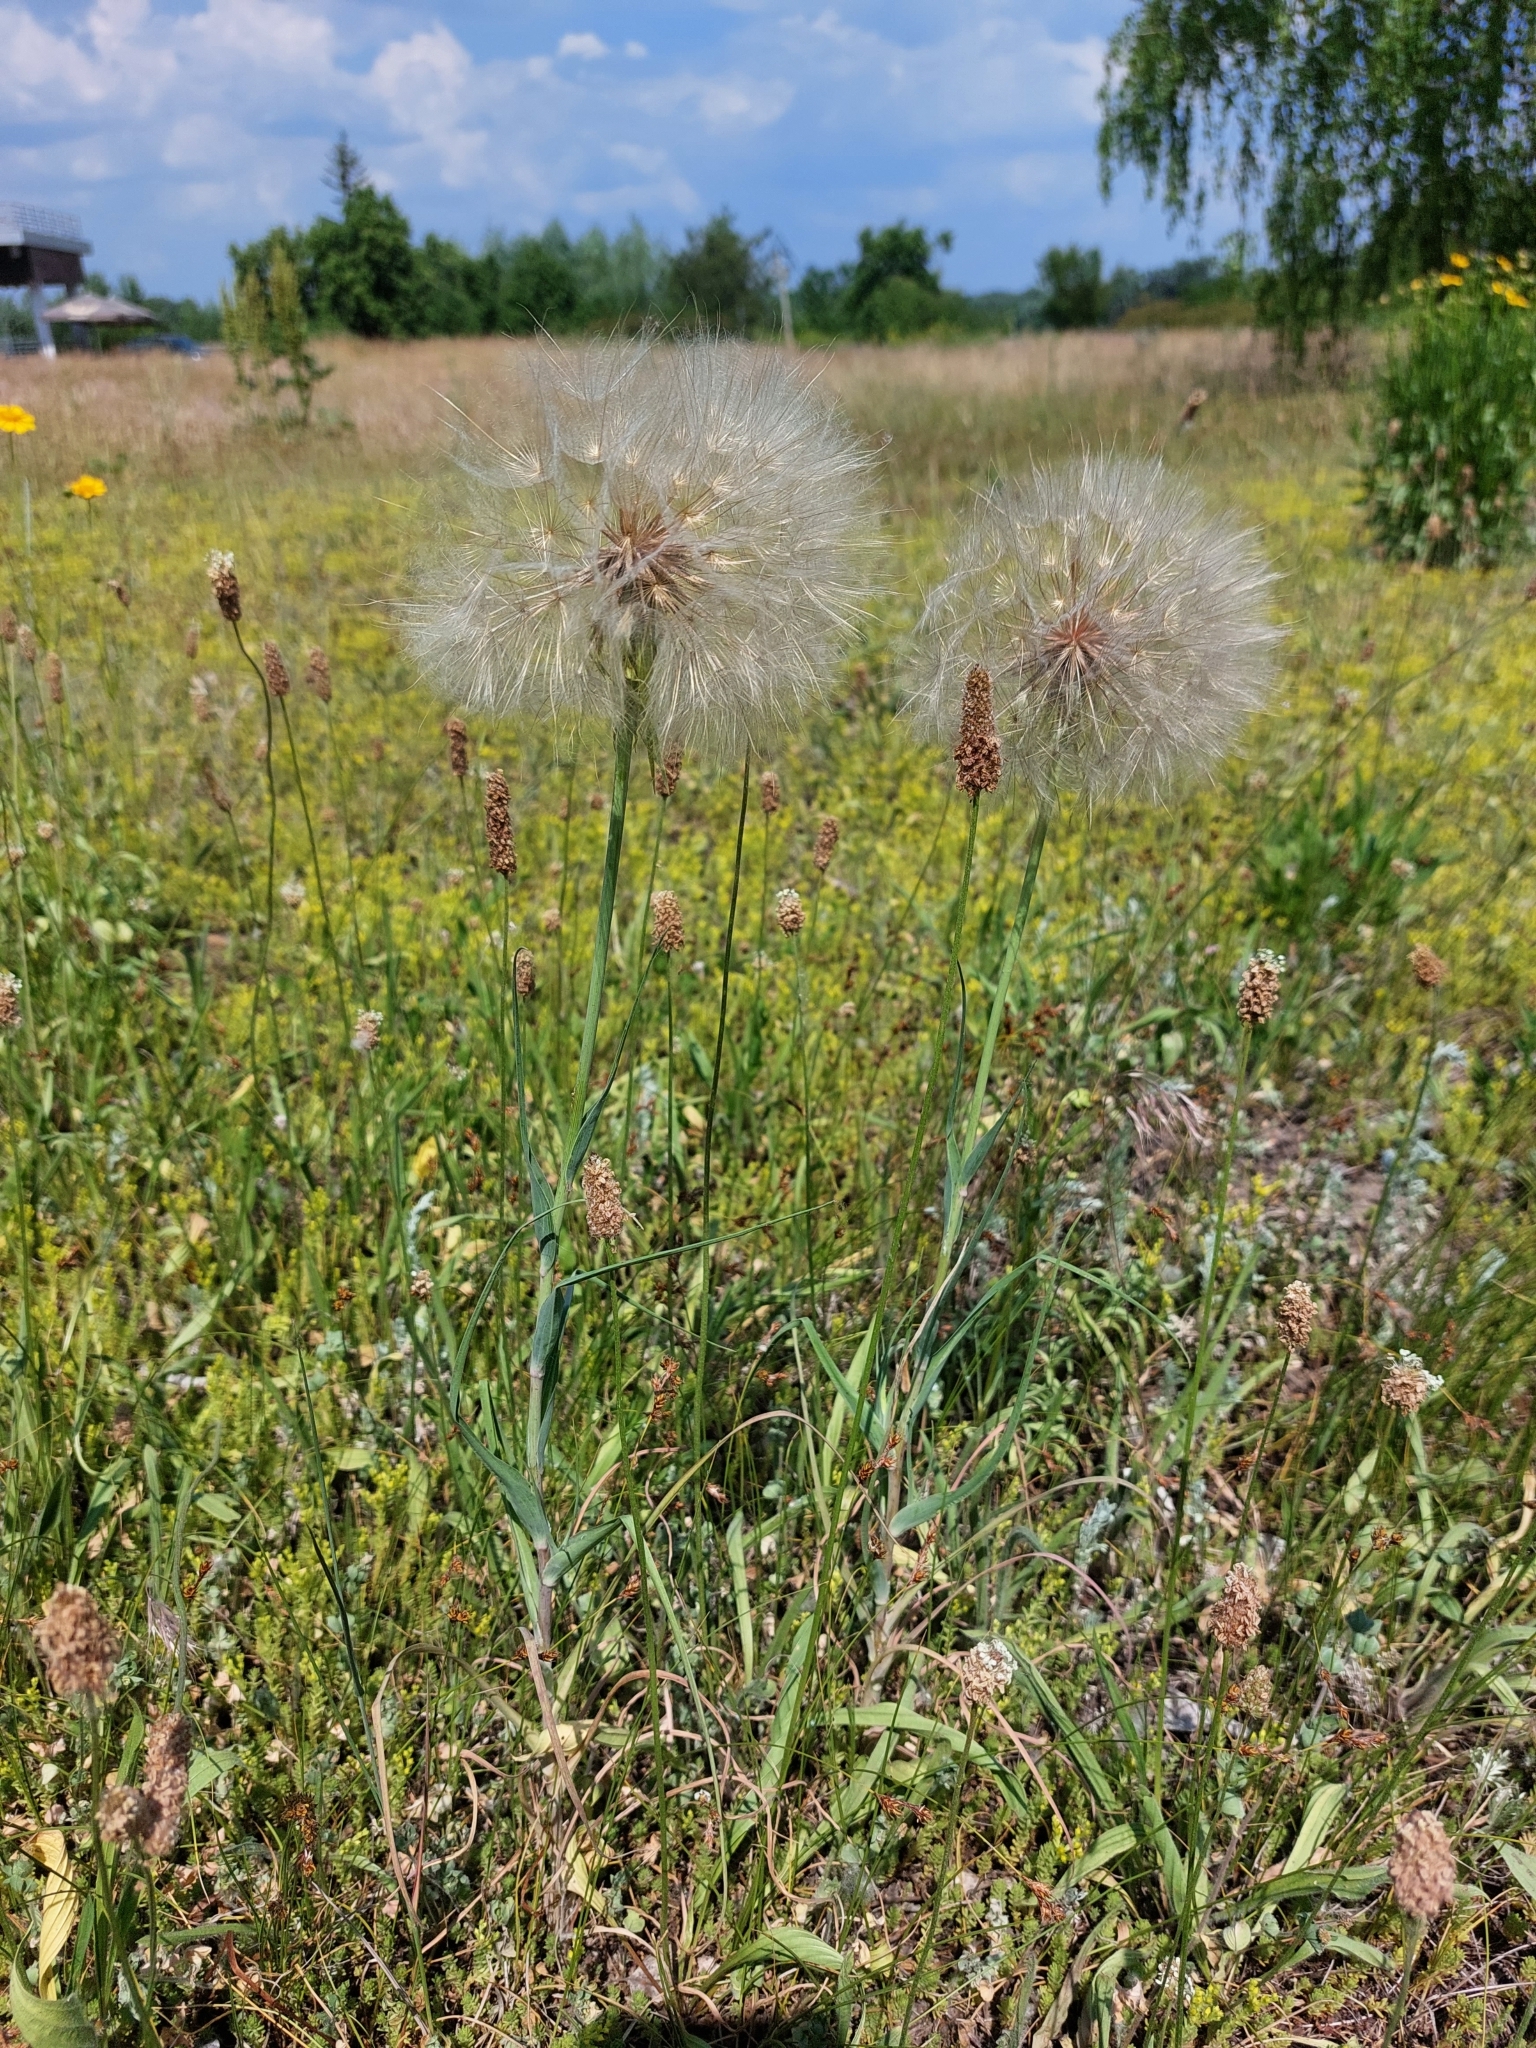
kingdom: Plantae
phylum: Tracheophyta
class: Magnoliopsida
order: Asterales
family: Asteraceae
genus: Tragopogon
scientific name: Tragopogon dubius
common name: Yellow salsify
